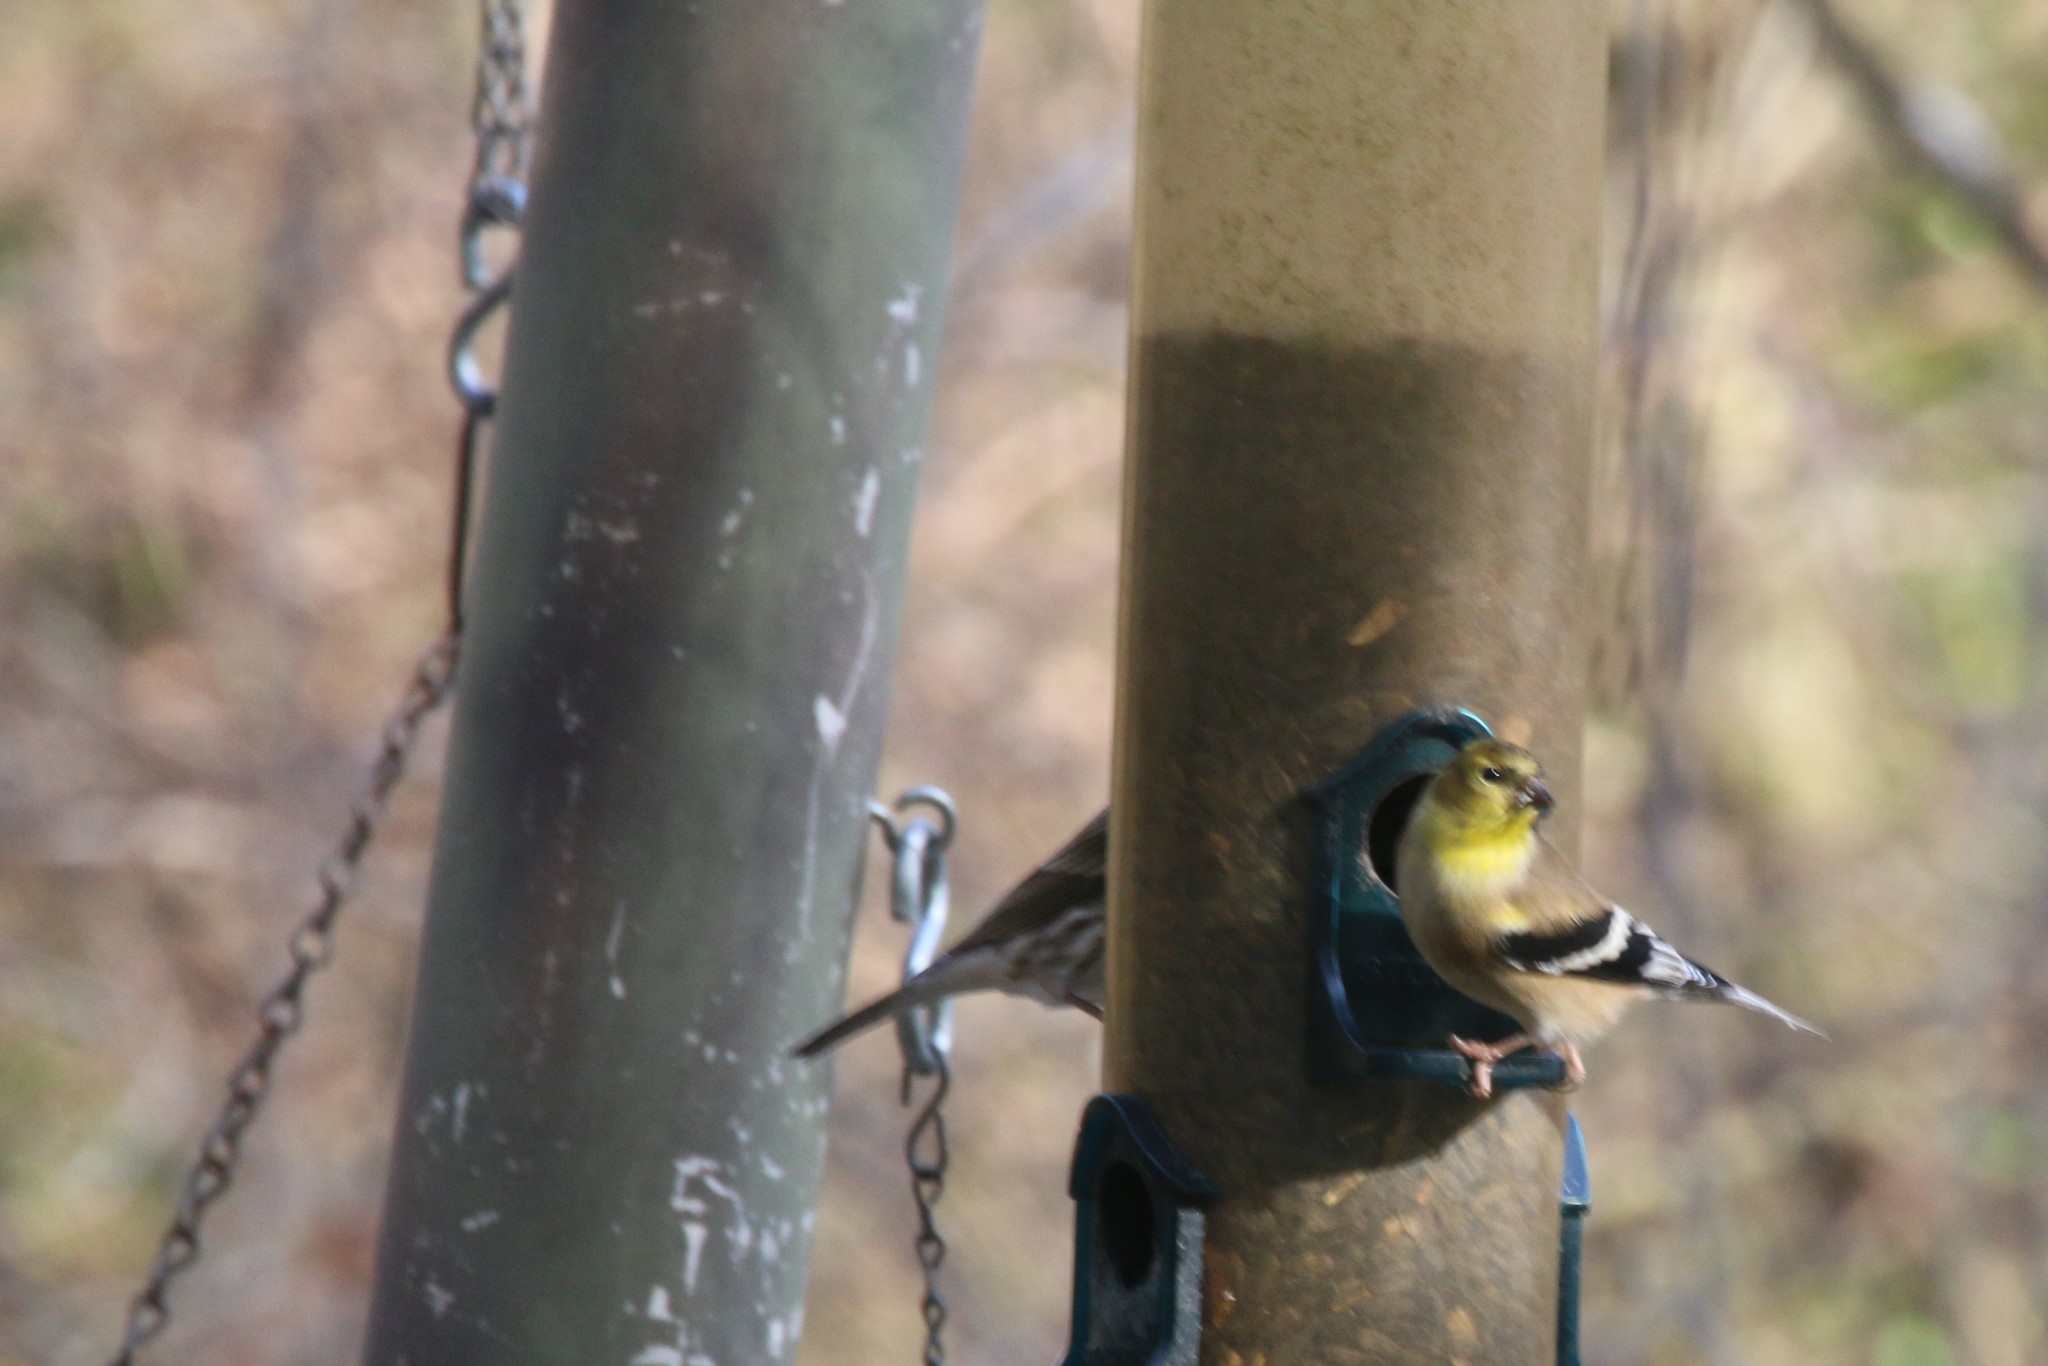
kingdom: Animalia
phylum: Chordata
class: Aves
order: Passeriformes
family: Fringillidae
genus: Spinus
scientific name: Spinus tristis
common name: American goldfinch
